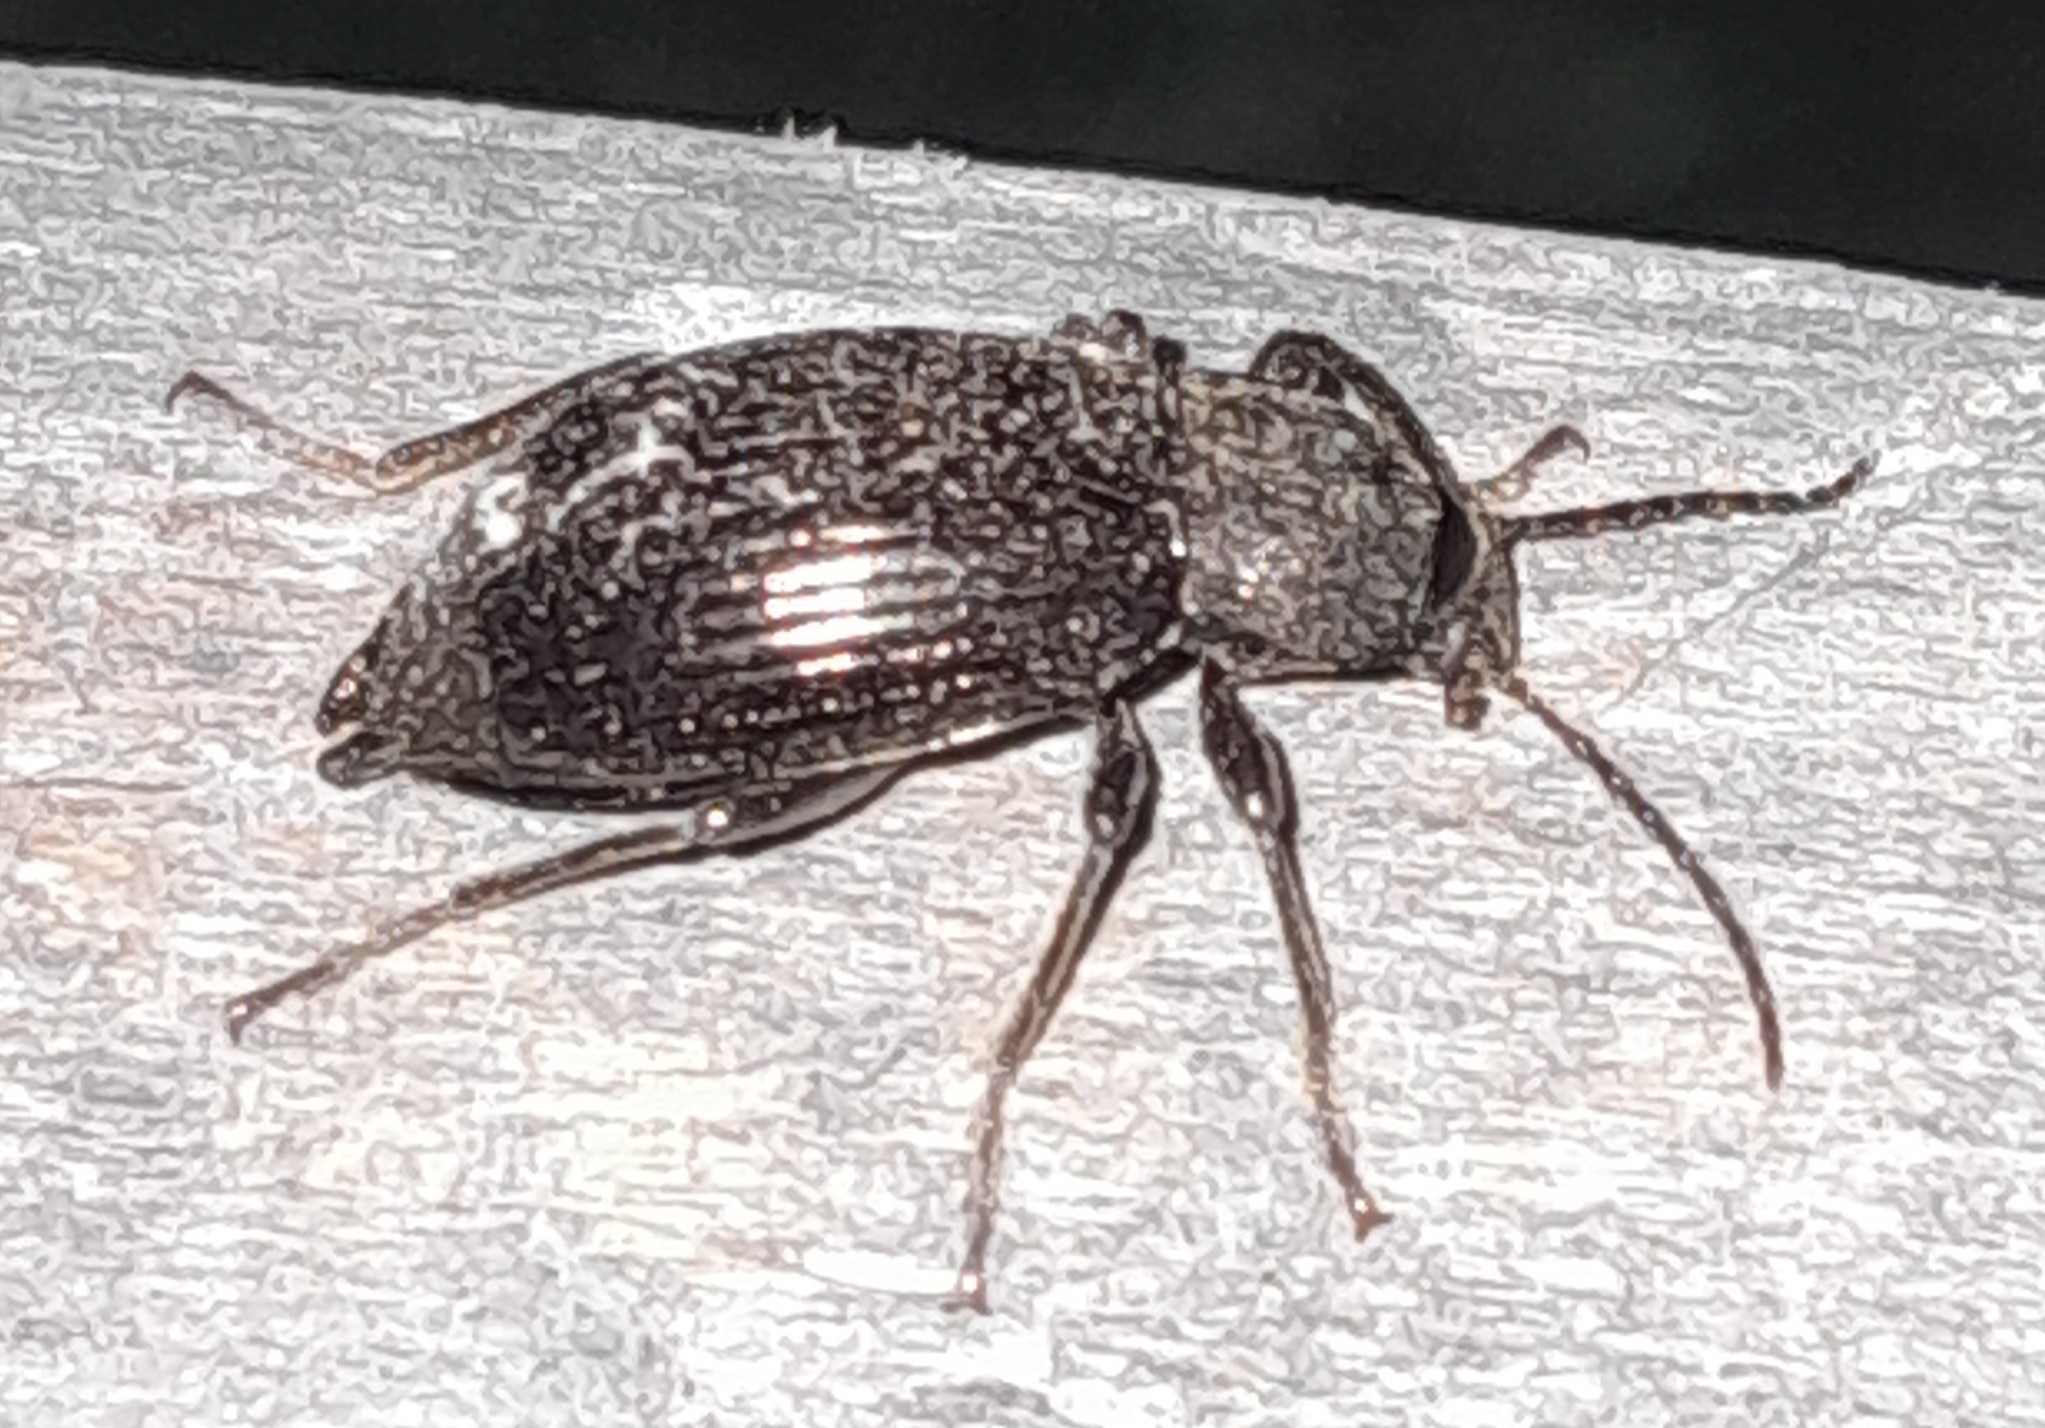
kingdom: Animalia
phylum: Arthropoda
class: Insecta
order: Coleoptera
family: Tenebrionidae
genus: Stenomax
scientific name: Stenomax aeneus
